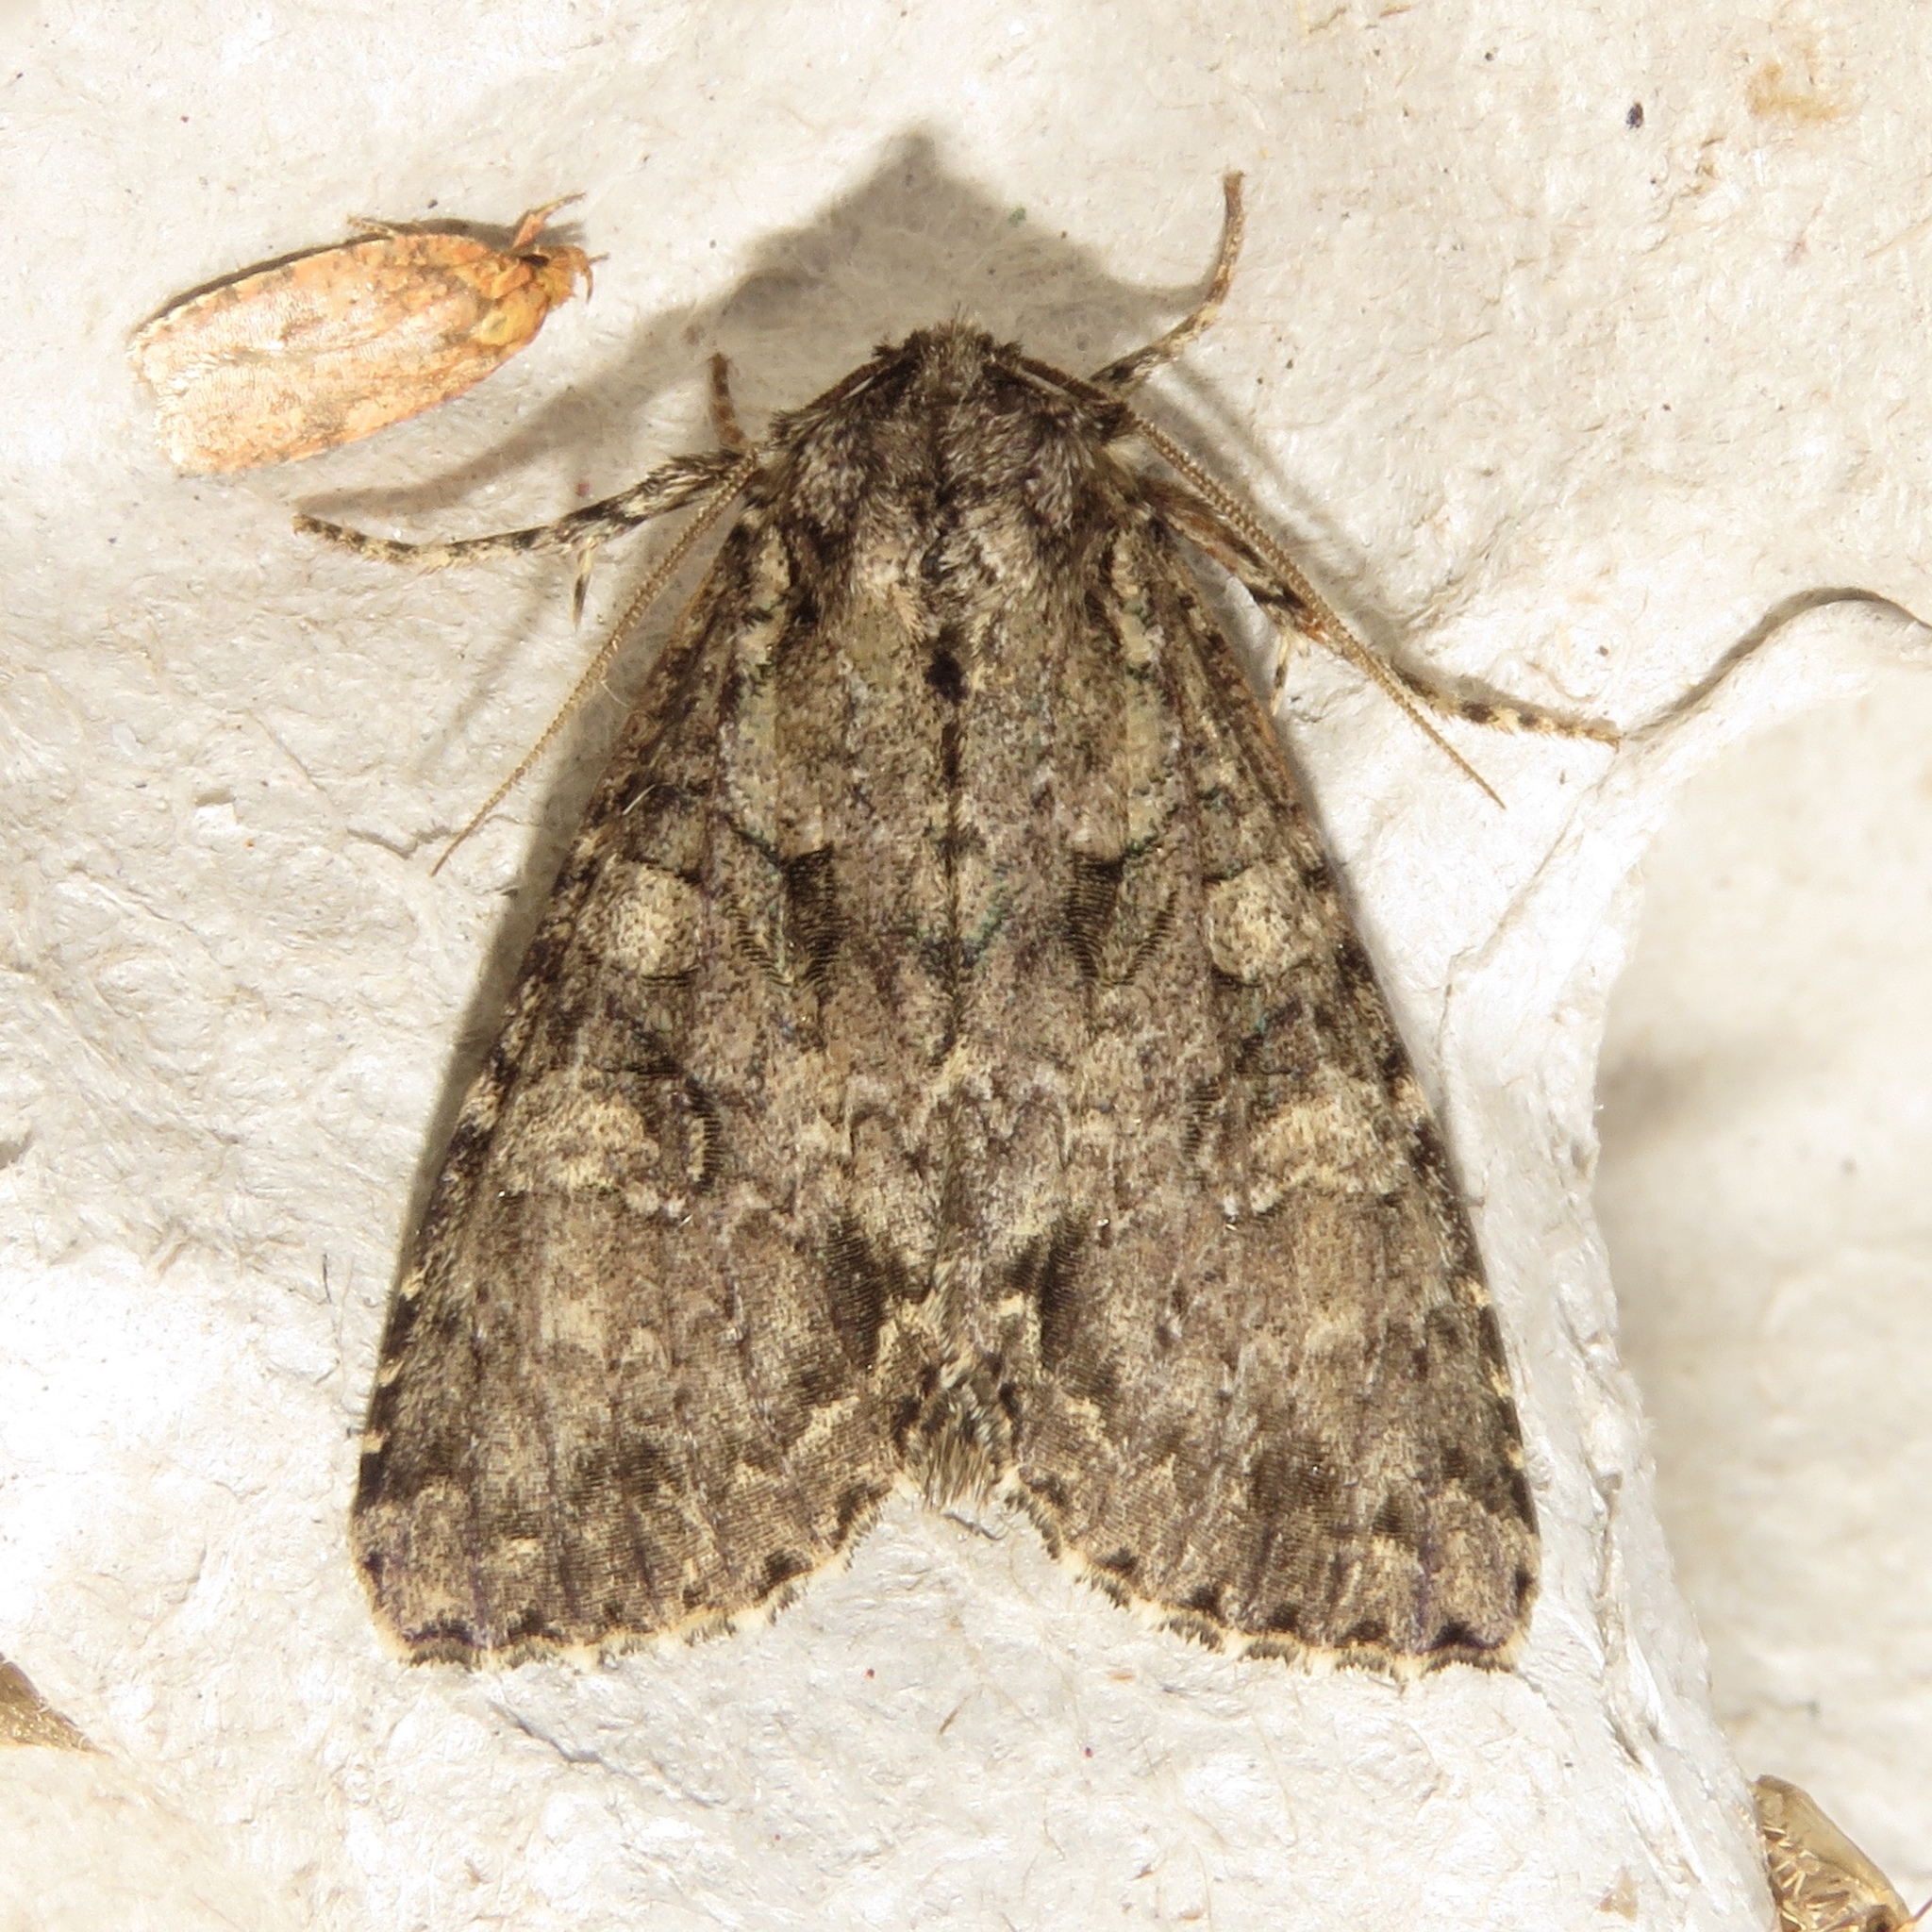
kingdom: Animalia
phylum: Arthropoda
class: Insecta
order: Lepidoptera
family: Noctuidae
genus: Polia
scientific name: Polia imbrifera
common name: Cloudy arches moth
